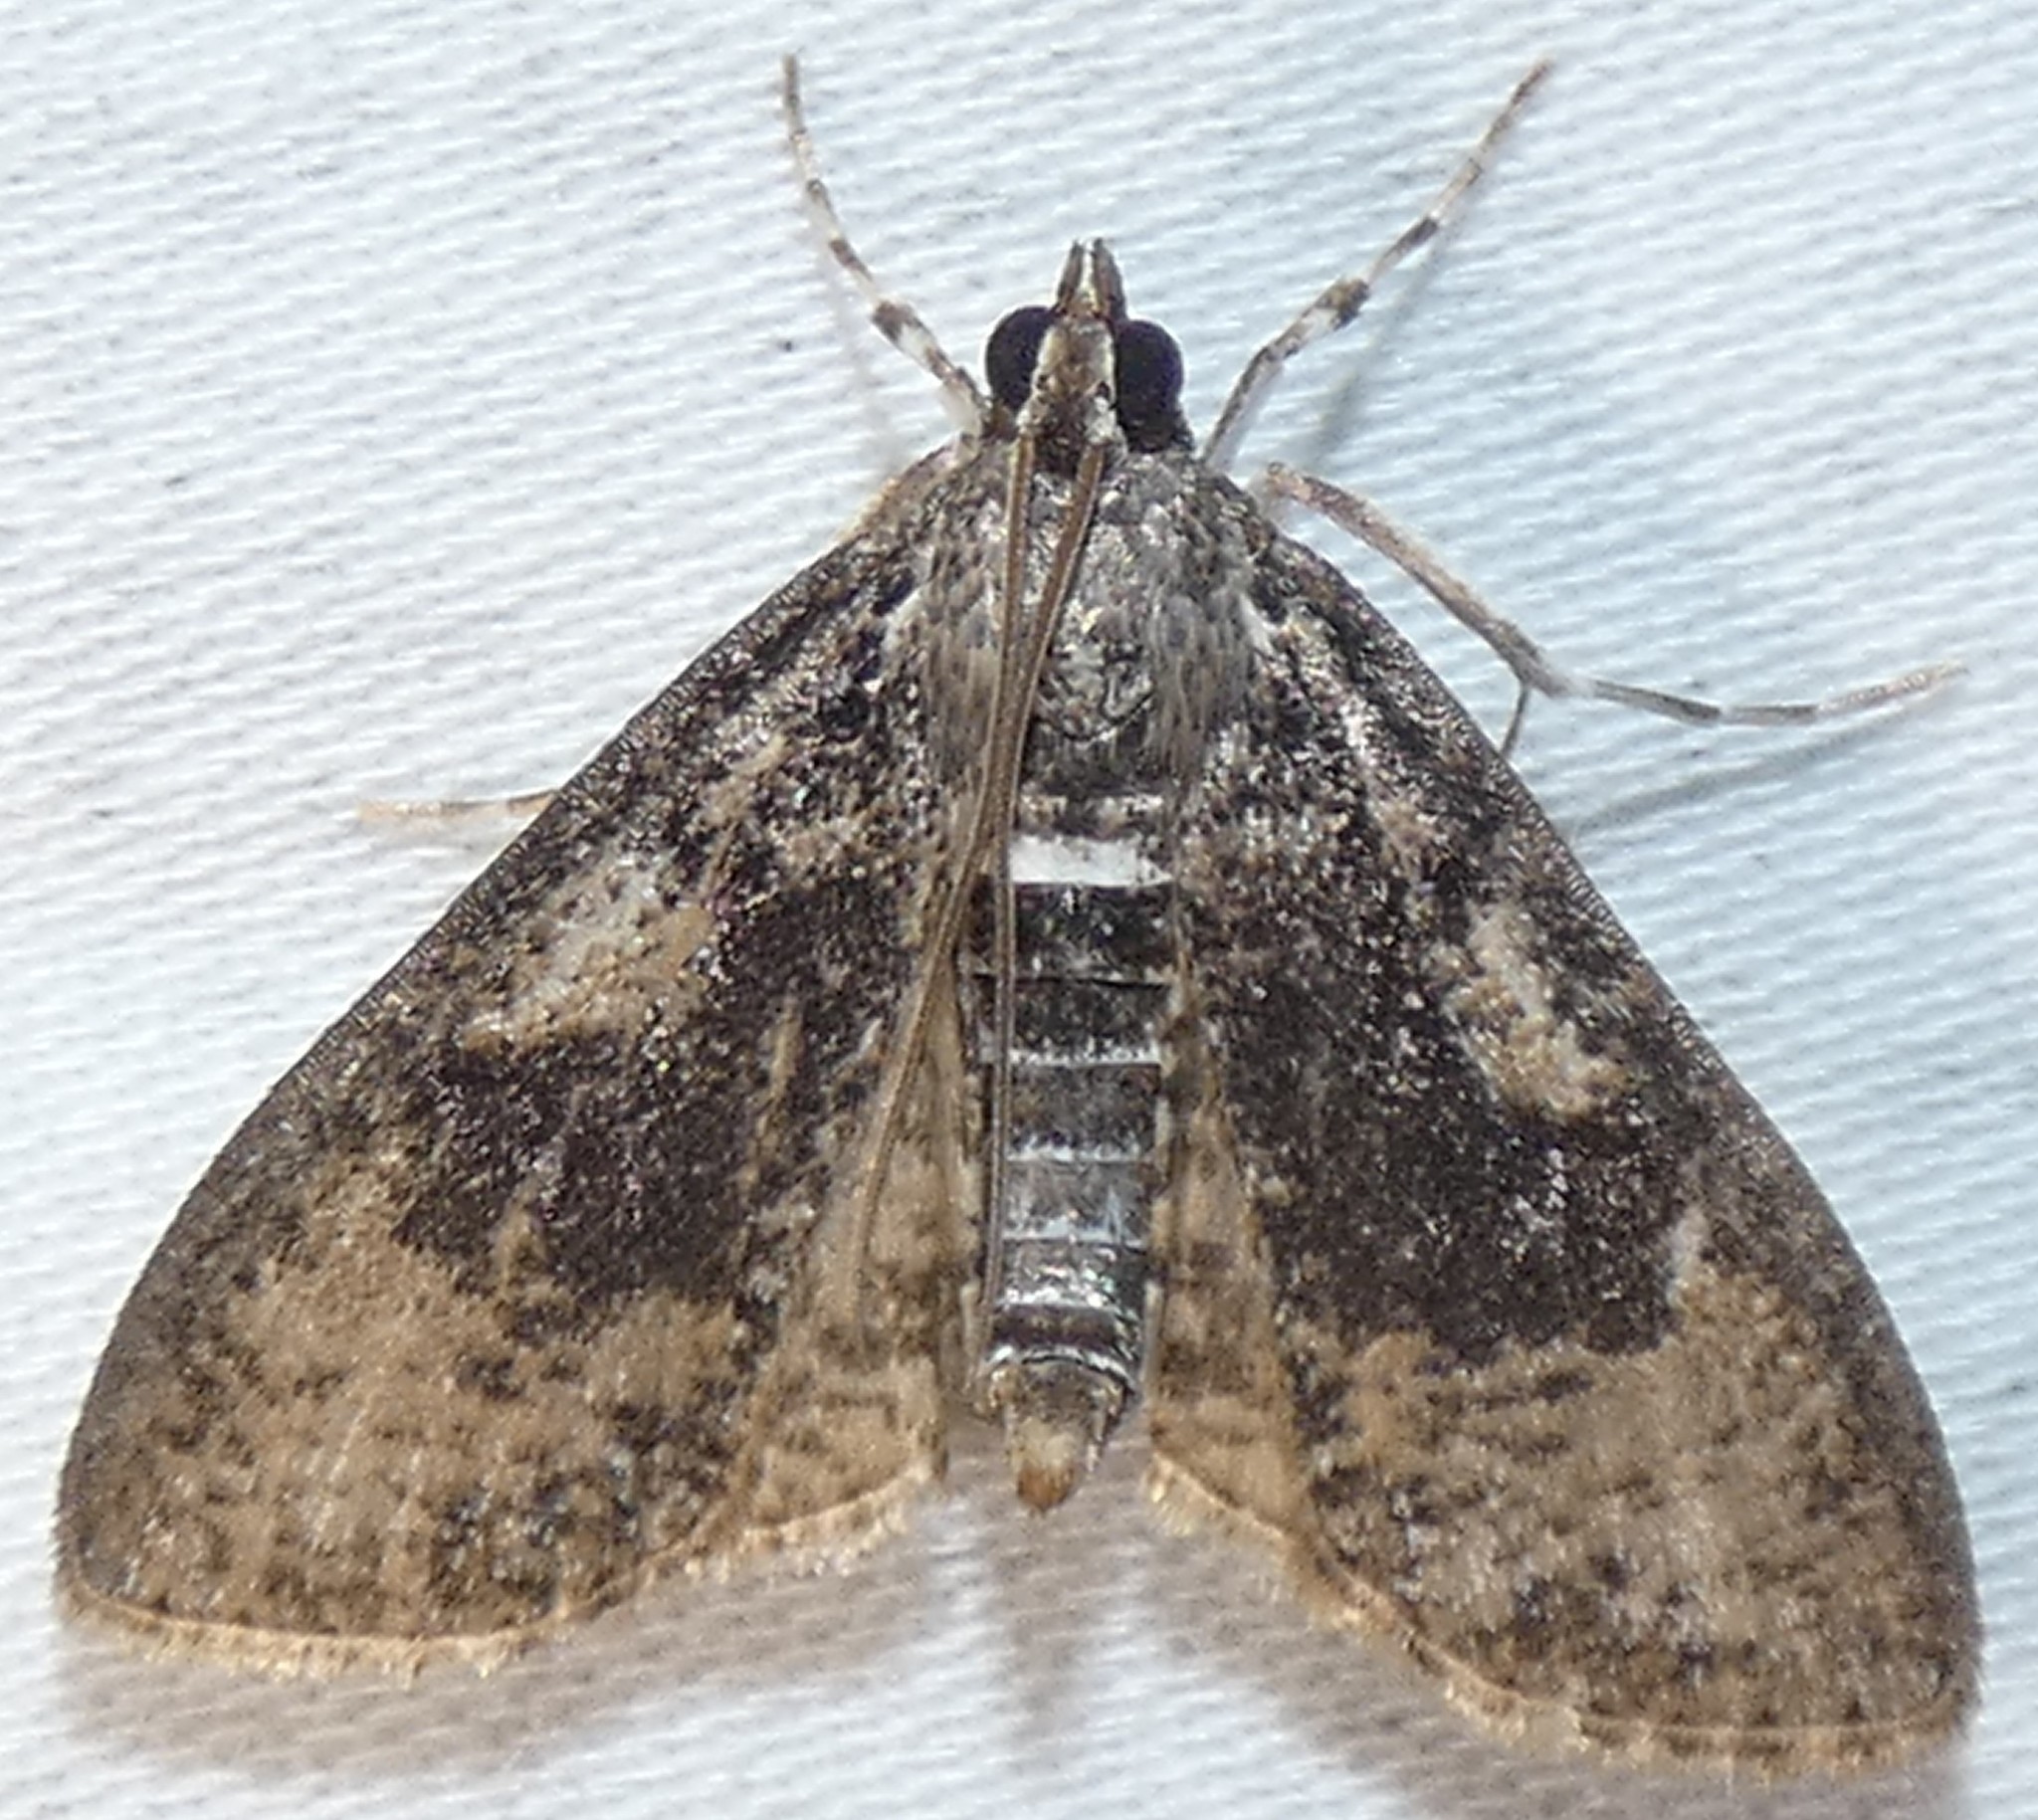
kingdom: Animalia
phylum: Arthropoda
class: Insecta
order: Lepidoptera
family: Crambidae
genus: Palpita
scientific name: Palpita magniferalis
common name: Splendid palpita moth
